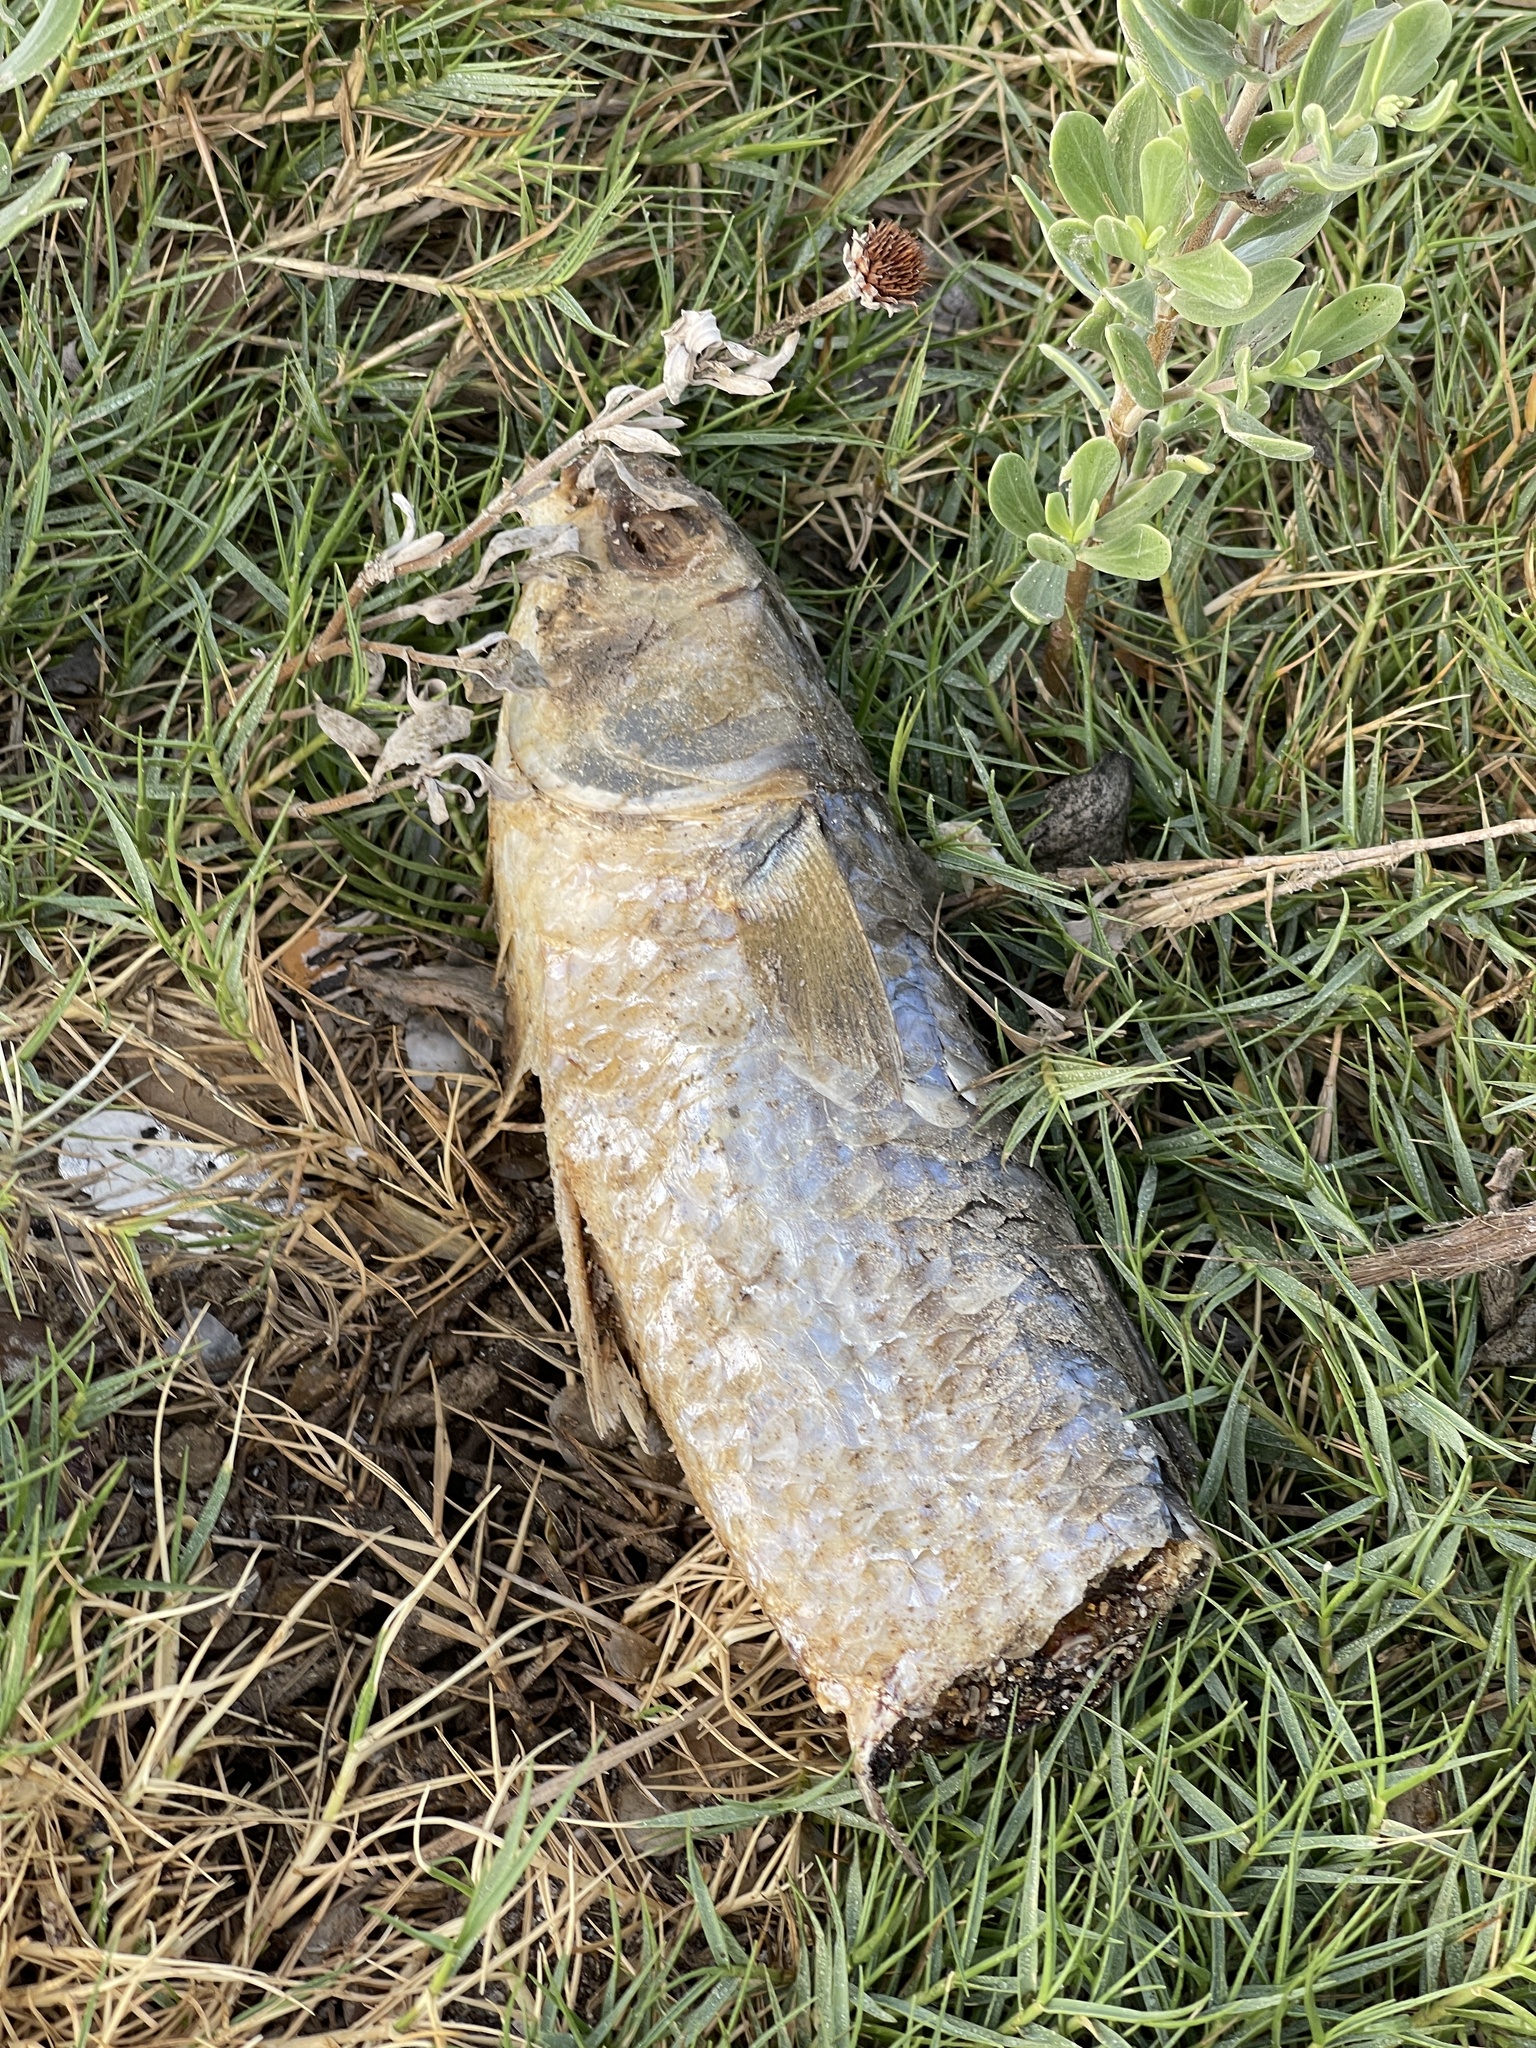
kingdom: Animalia
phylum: Chordata
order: Mugiliformes
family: Mugilidae
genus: Mugil
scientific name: Mugil cephalus
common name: Grey mullet
